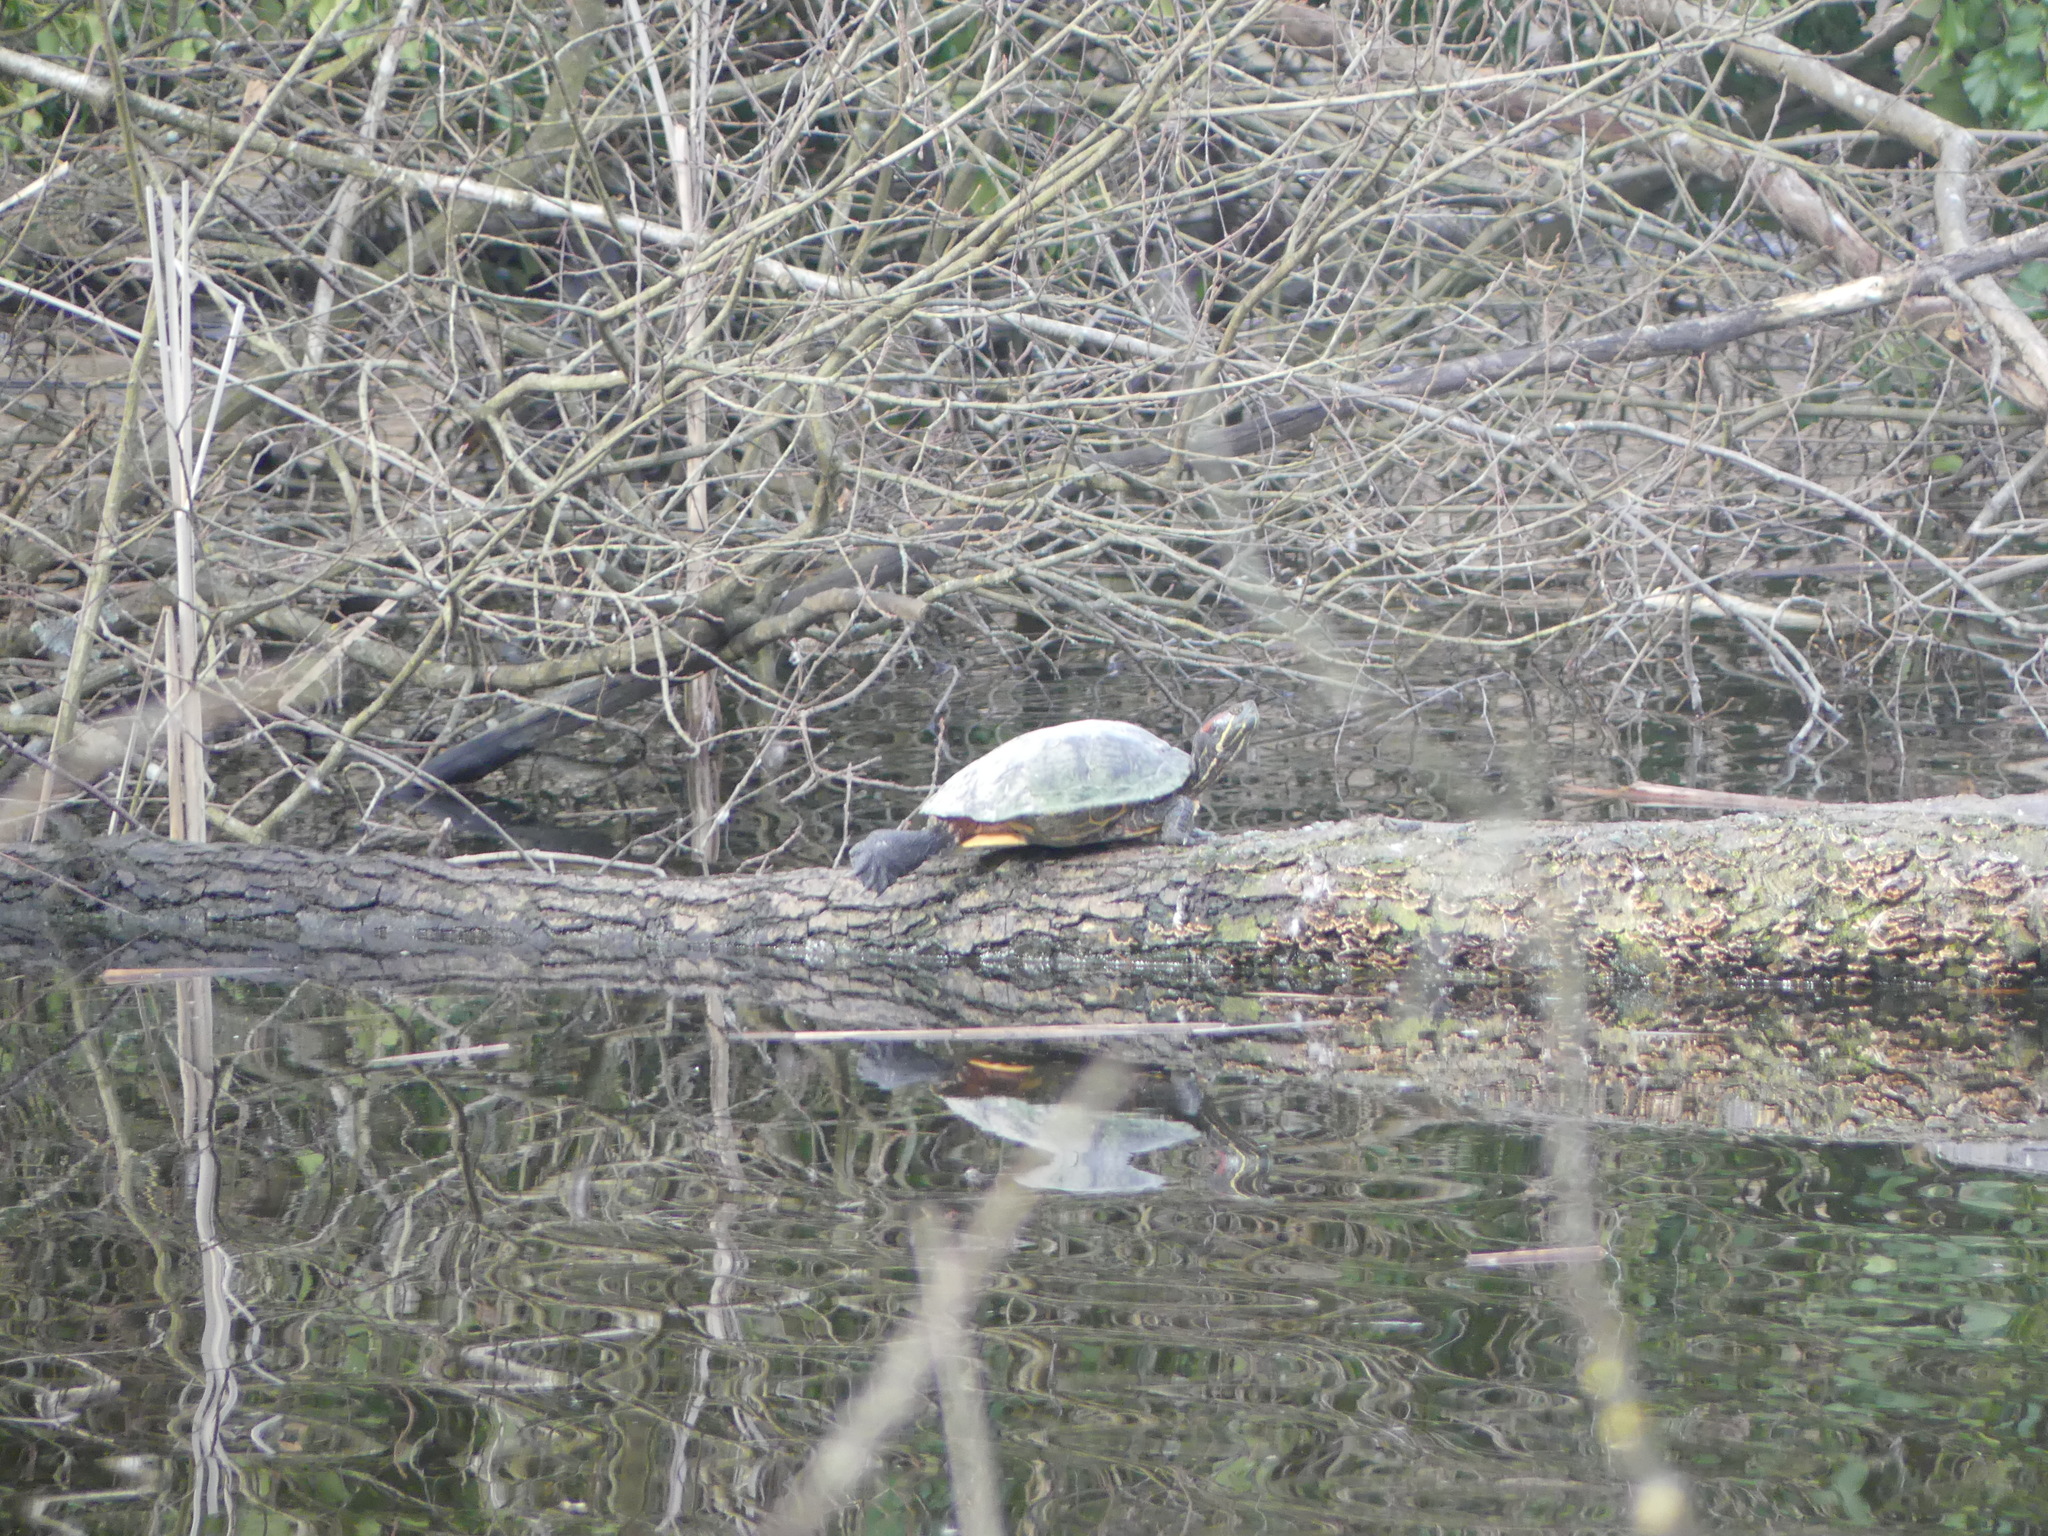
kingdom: Animalia
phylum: Chordata
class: Testudines
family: Emydidae
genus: Trachemys
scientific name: Trachemys scripta
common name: Slider
